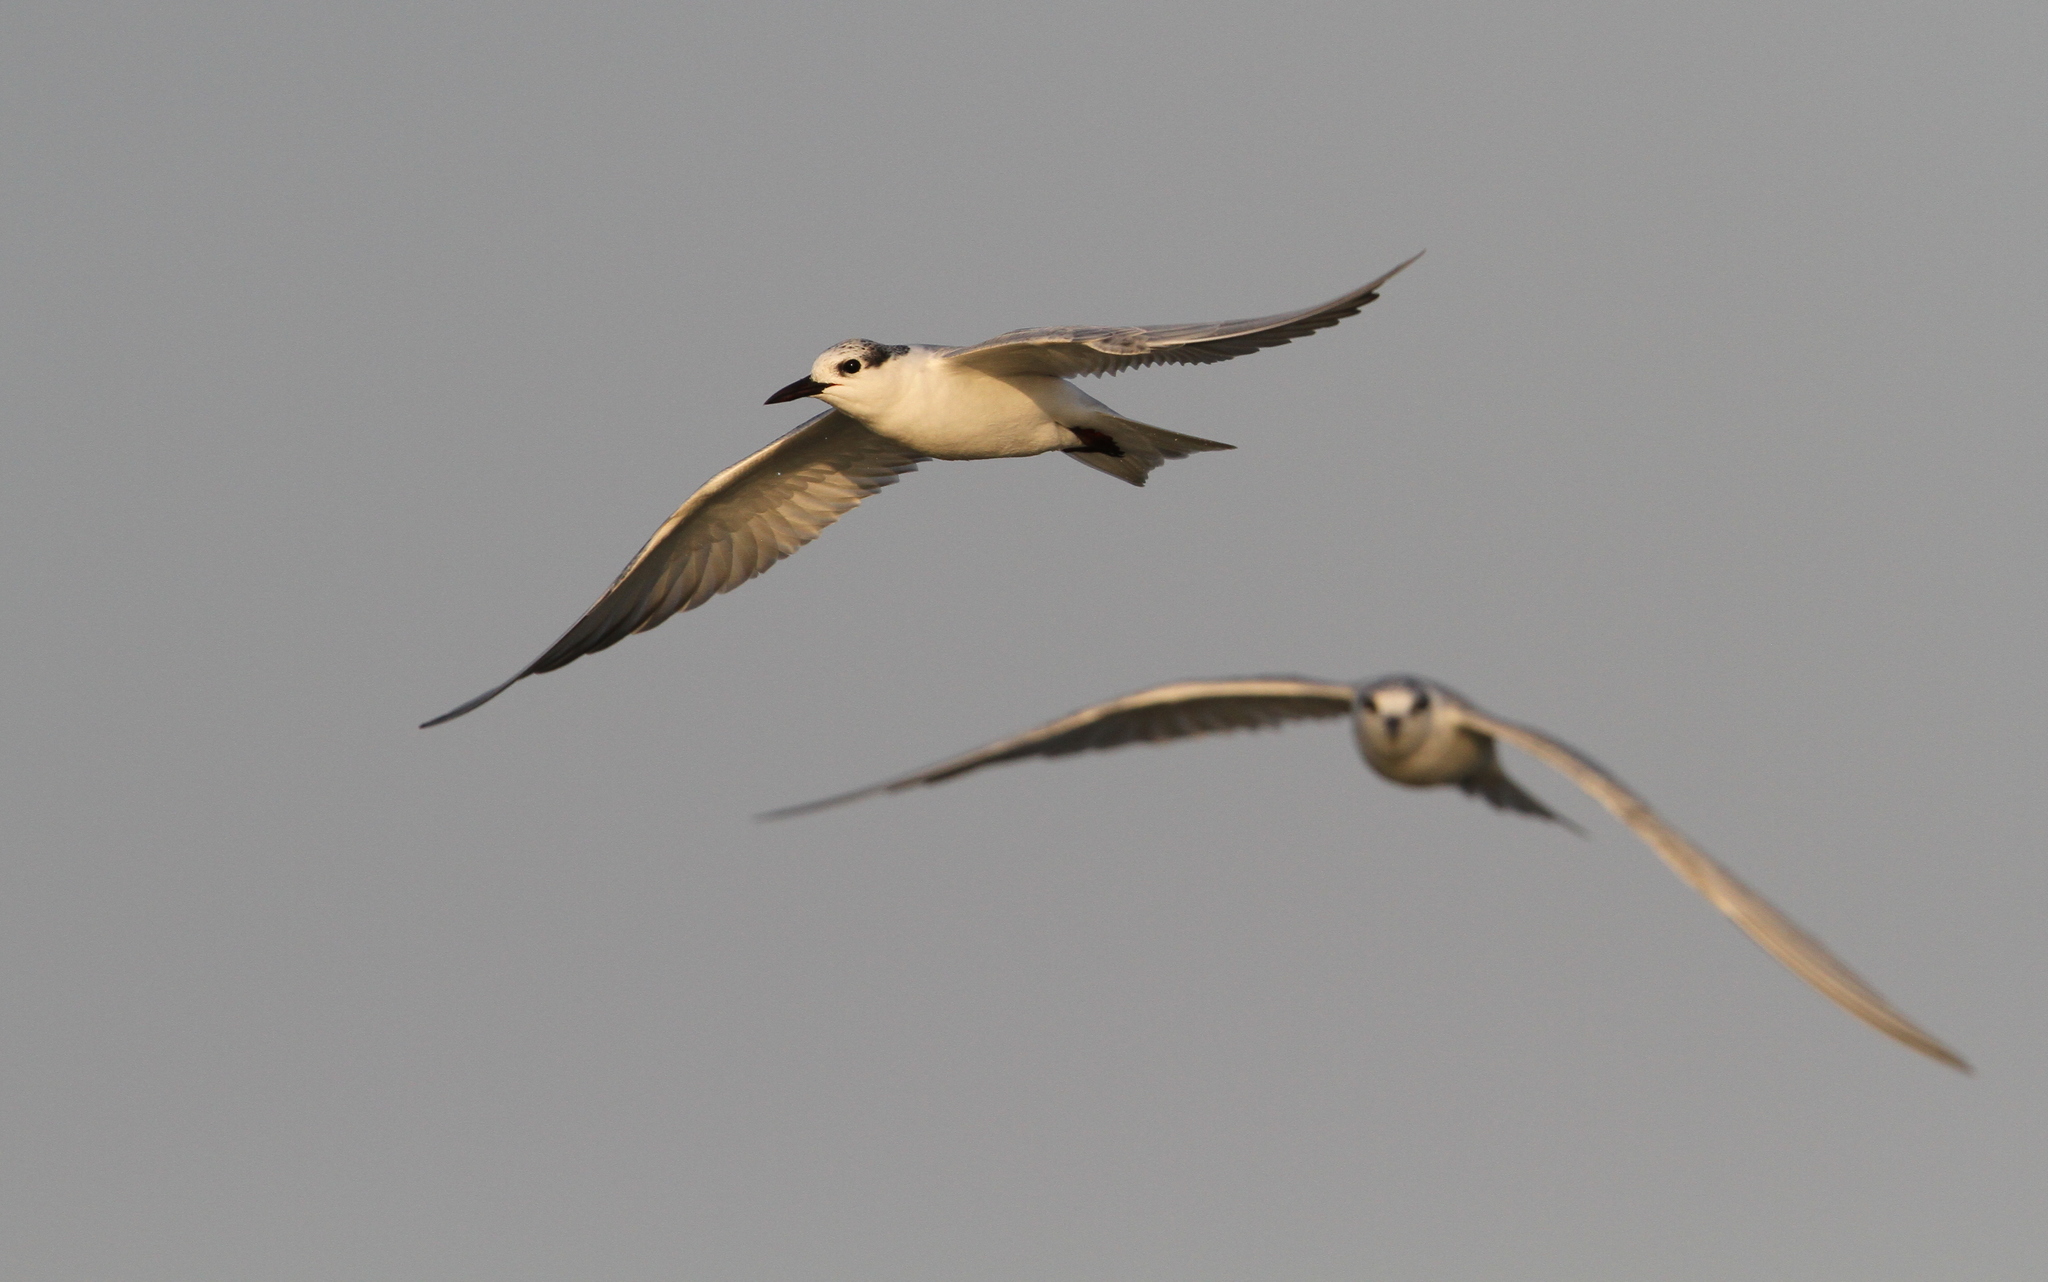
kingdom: Animalia
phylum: Chordata
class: Aves
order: Charadriiformes
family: Laridae
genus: Chlidonias
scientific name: Chlidonias hybrida
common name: Whiskered tern
